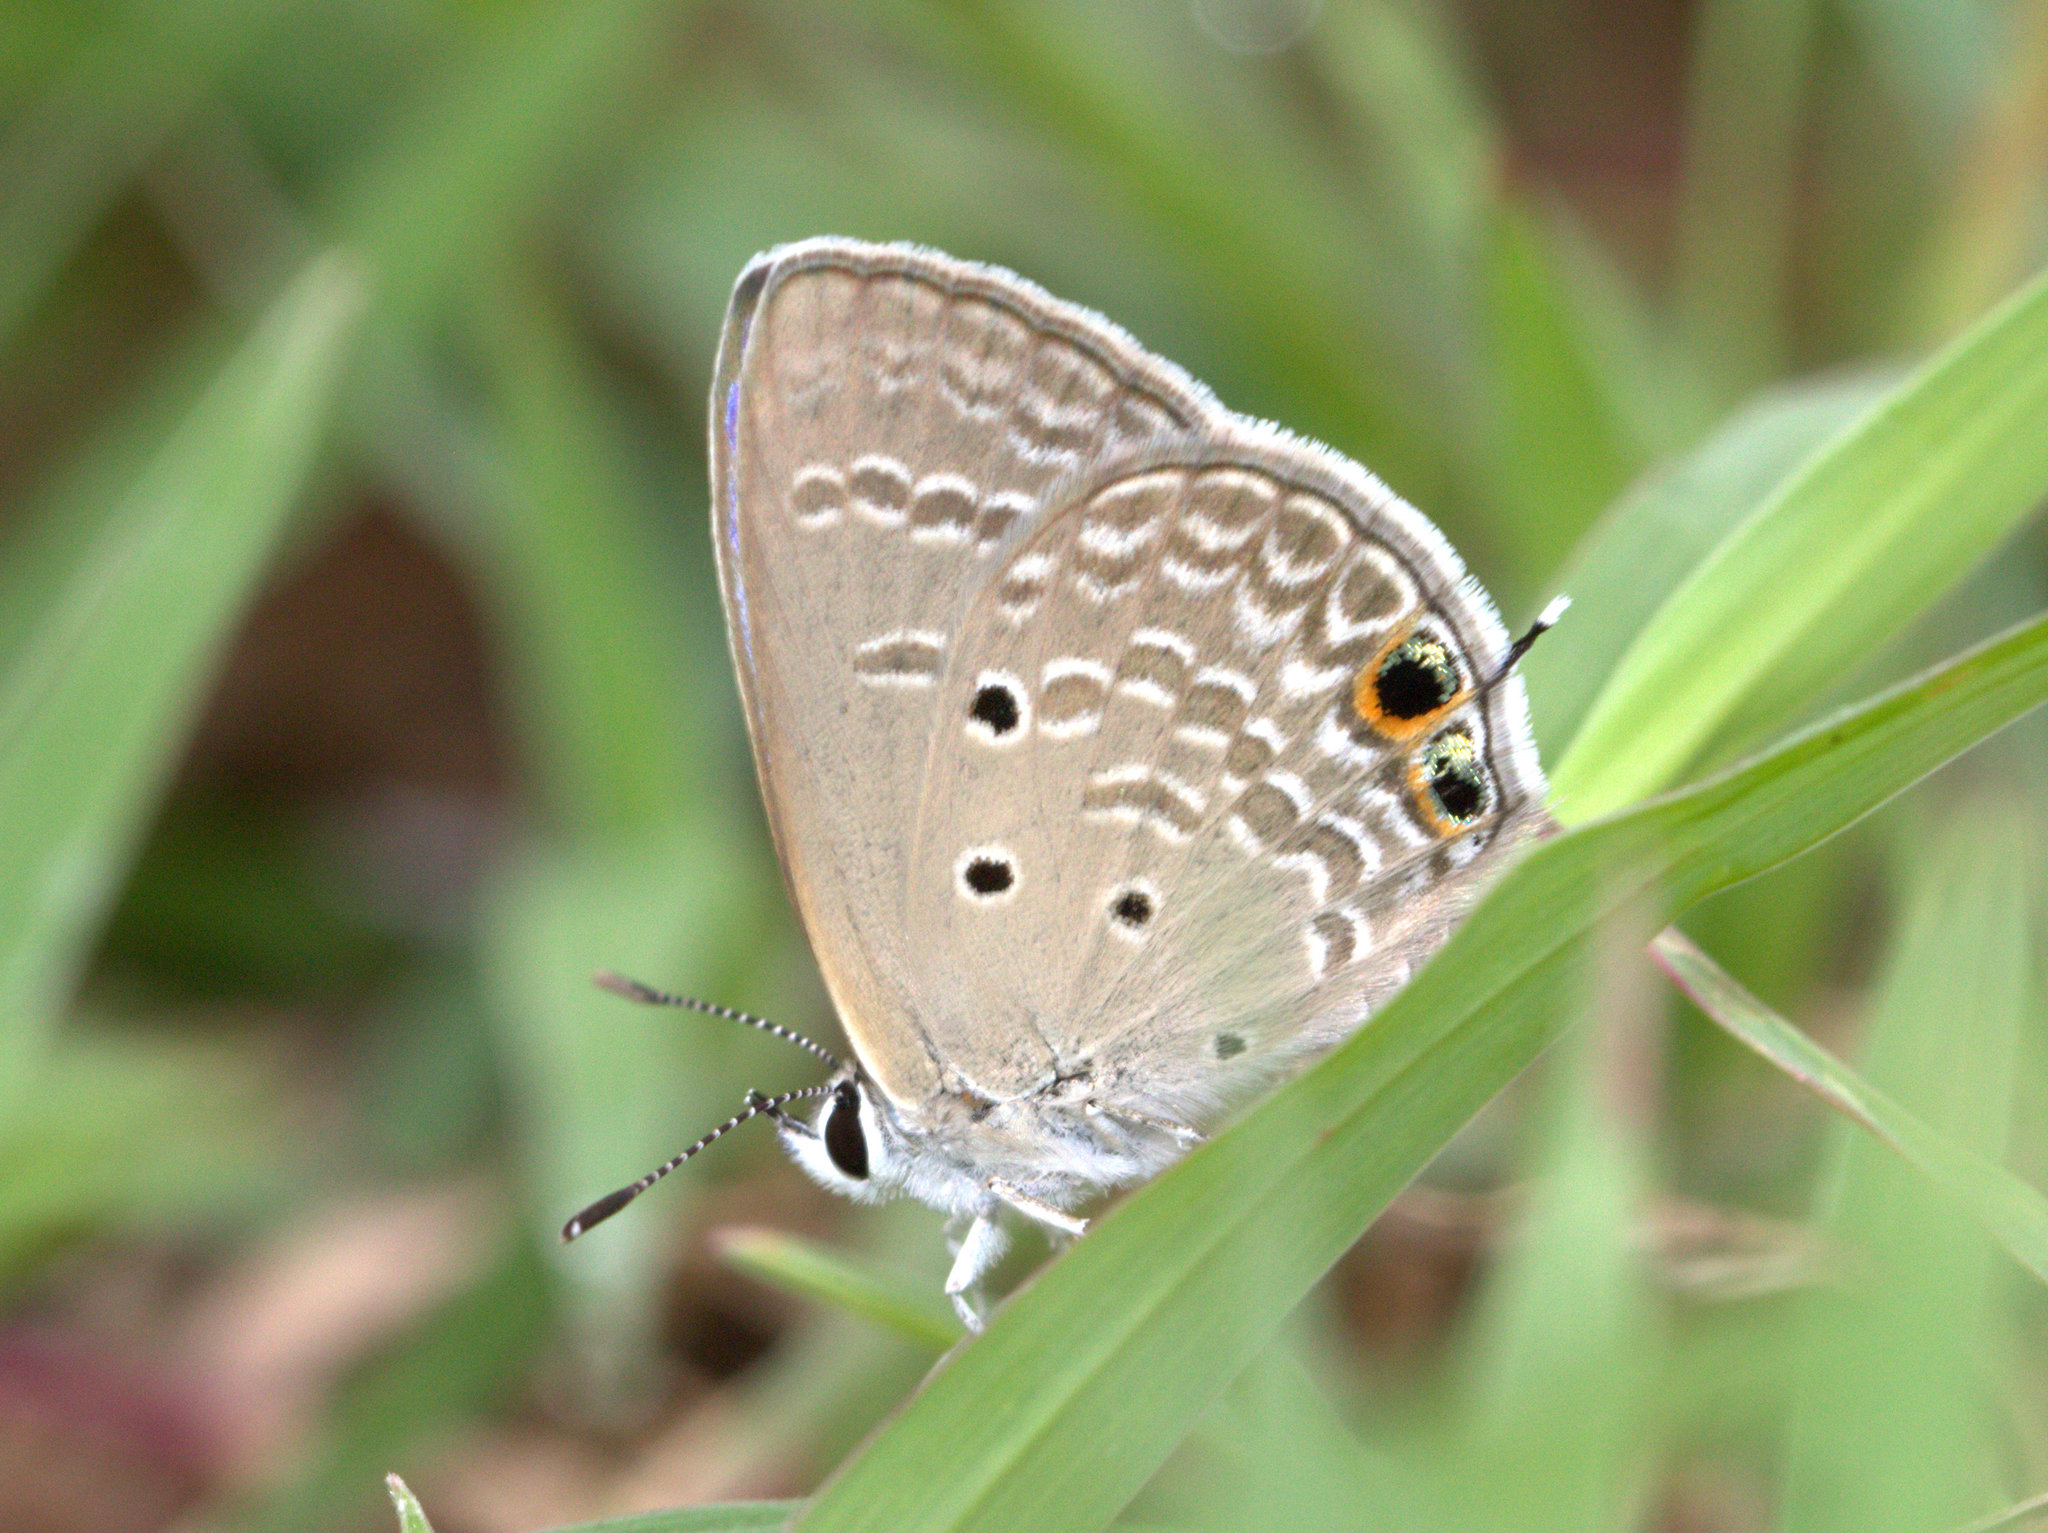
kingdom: Animalia
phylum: Arthropoda
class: Insecta
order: Lepidoptera
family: Lycaenidae
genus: Chilades
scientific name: Chilades parrhasius
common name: Small cupid
